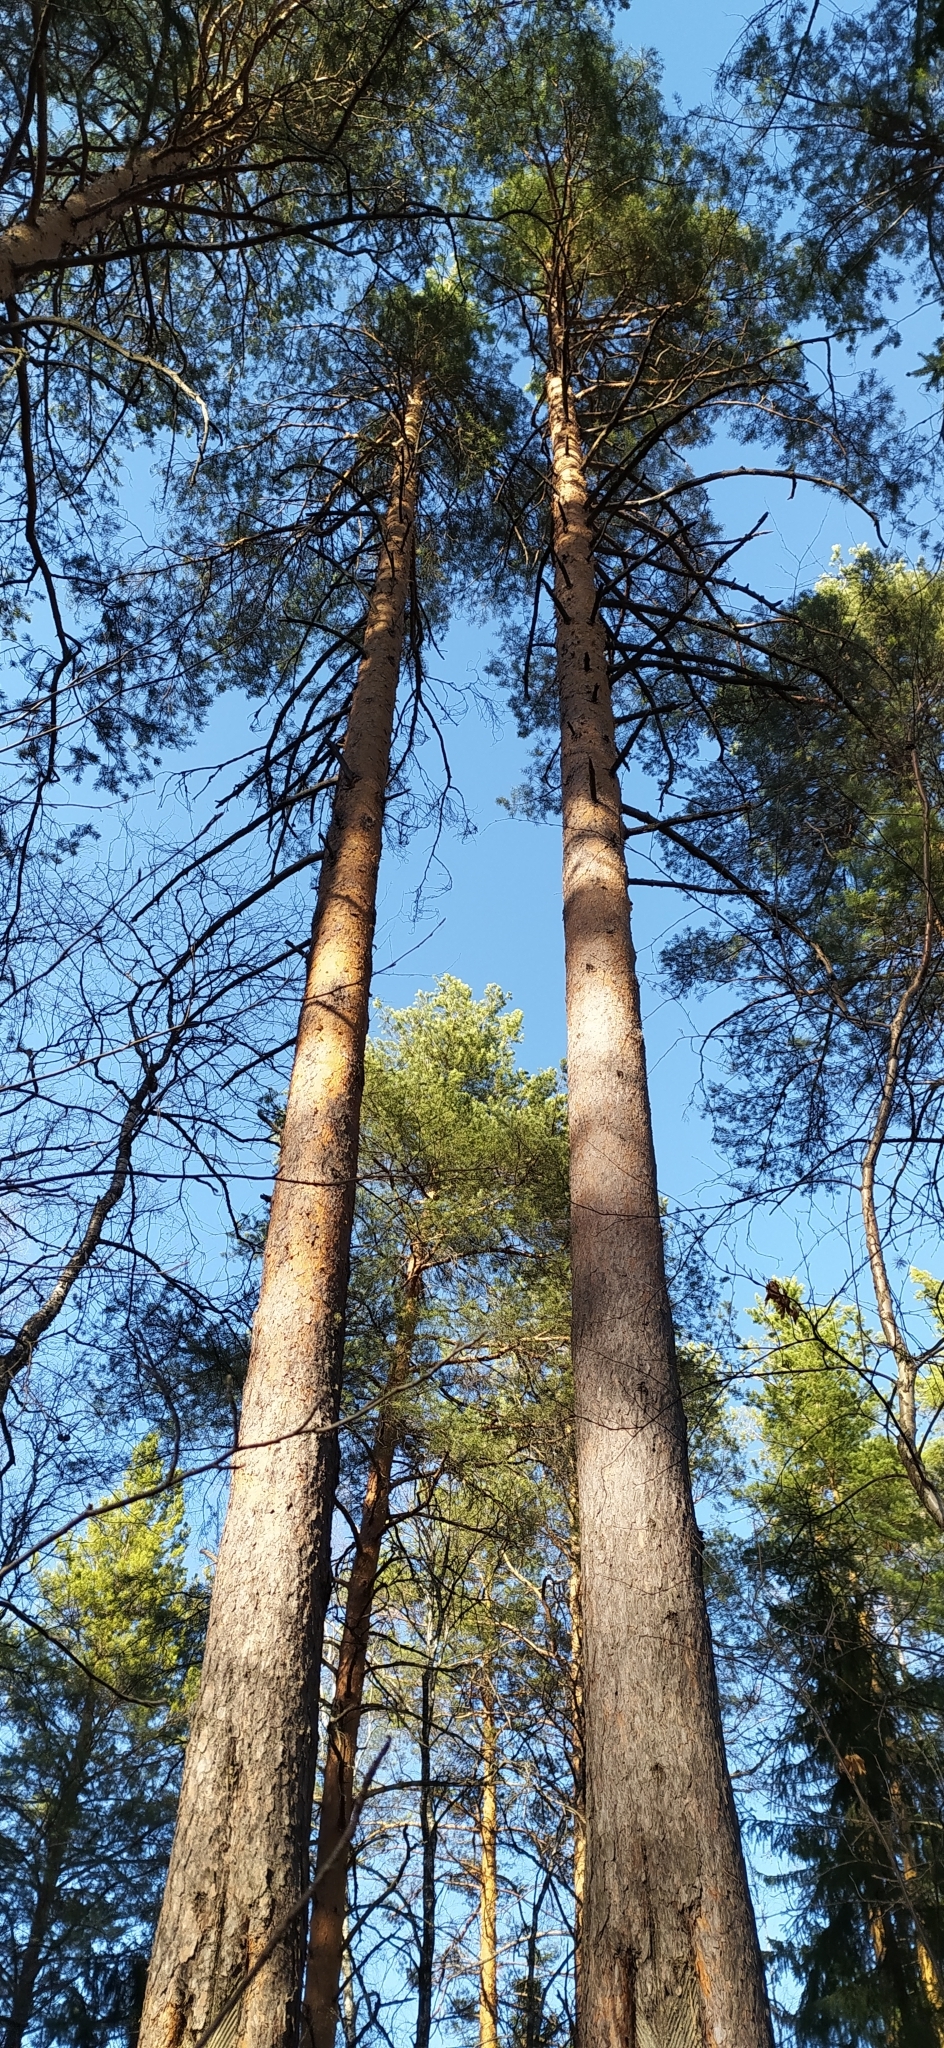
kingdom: Plantae
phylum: Tracheophyta
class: Pinopsida
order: Pinales
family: Pinaceae
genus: Pinus
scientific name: Pinus sylvestris
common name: Scots pine
